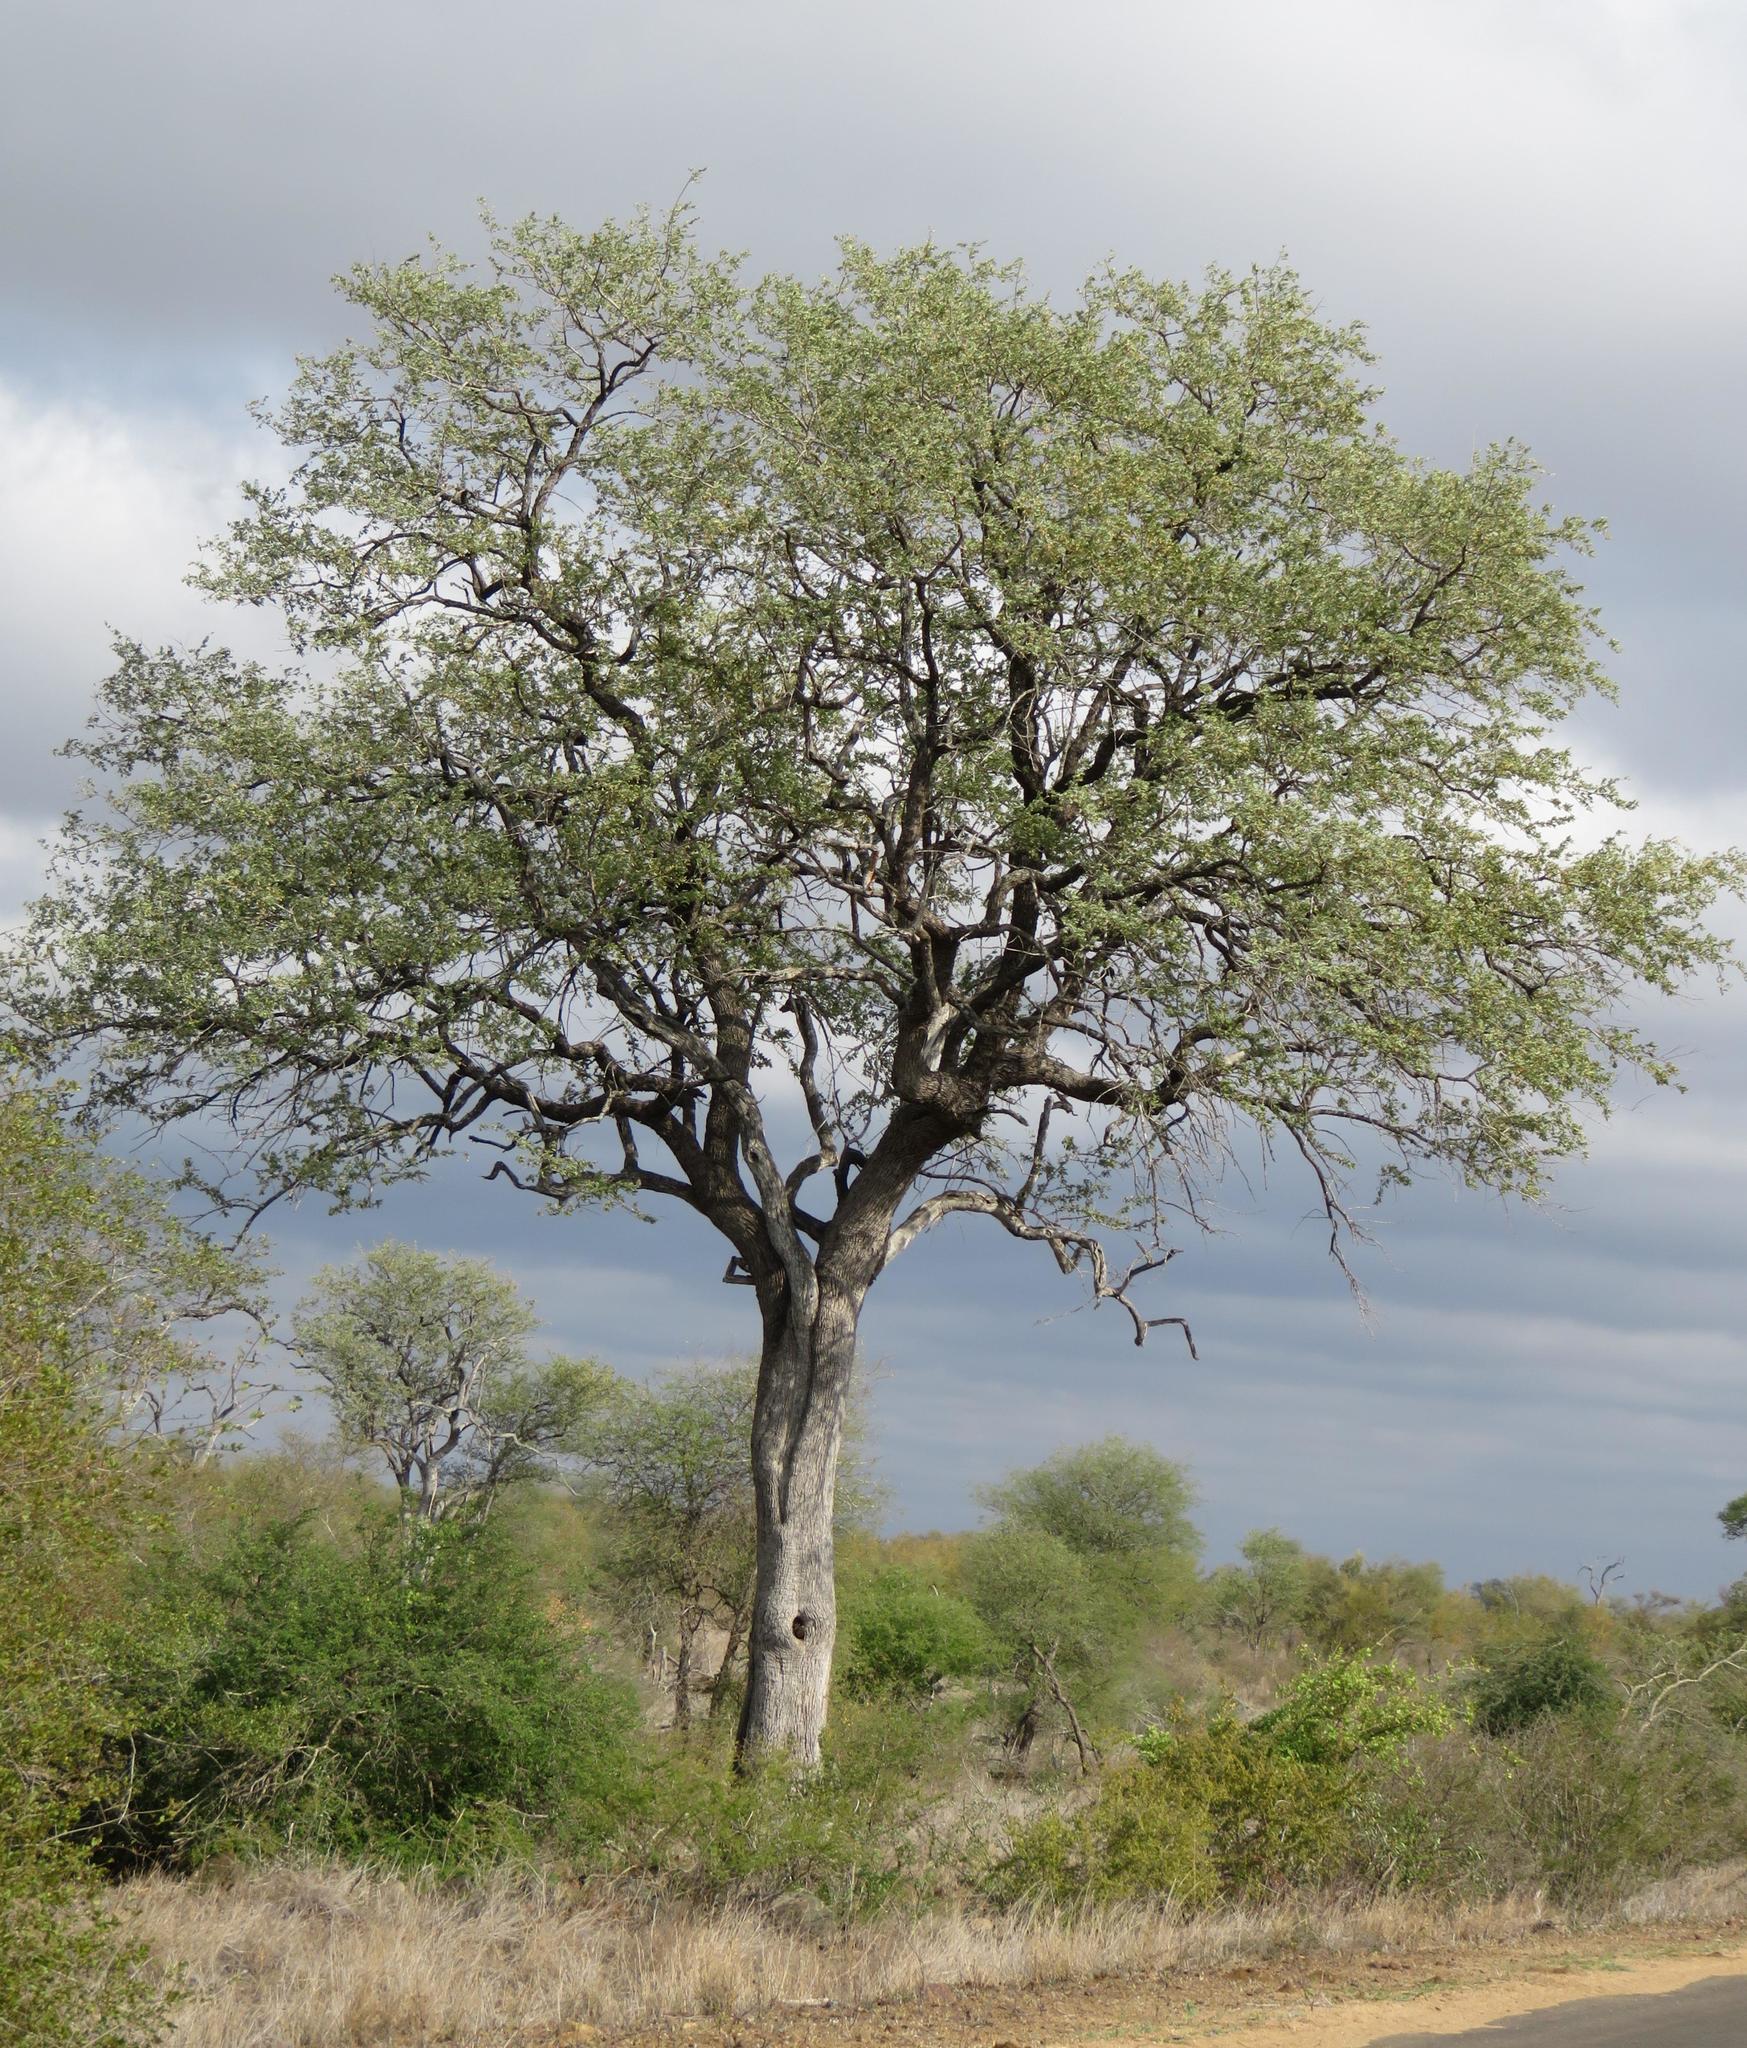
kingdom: Plantae
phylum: Tracheophyta
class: Magnoliopsida
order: Myrtales
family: Combretaceae
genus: Combretum
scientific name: Combretum imberbe
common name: Leadwood
